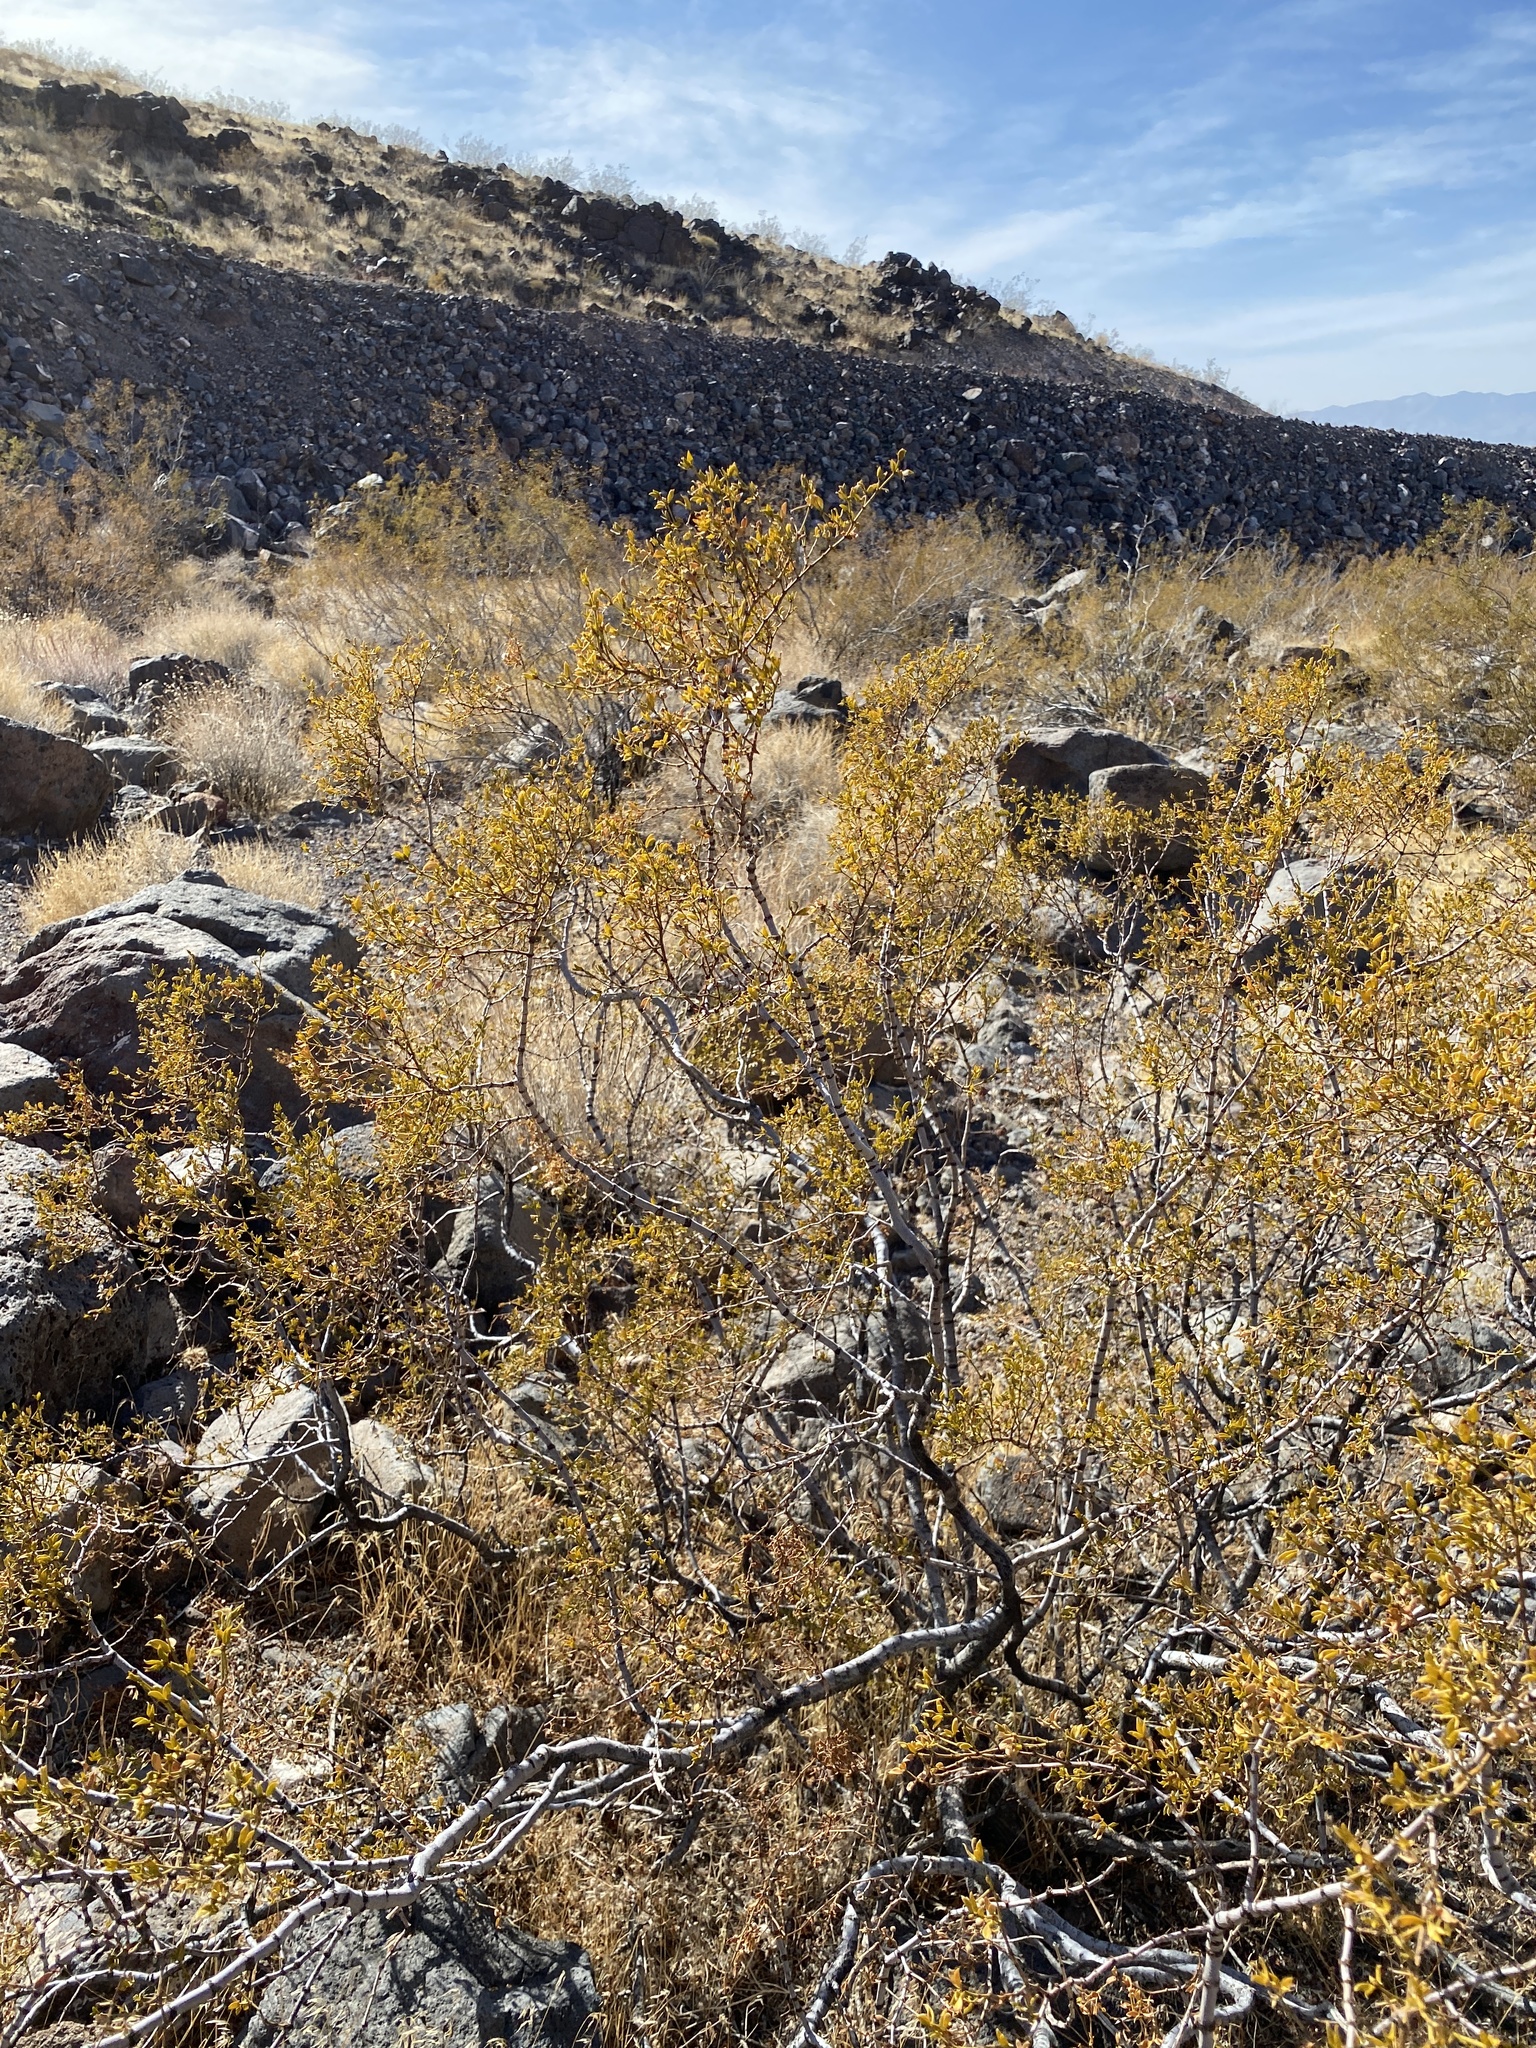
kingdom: Plantae
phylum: Tracheophyta
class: Magnoliopsida
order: Zygophyllales
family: Zygophyllaceae
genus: Larrea
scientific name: Larrea tridentata
